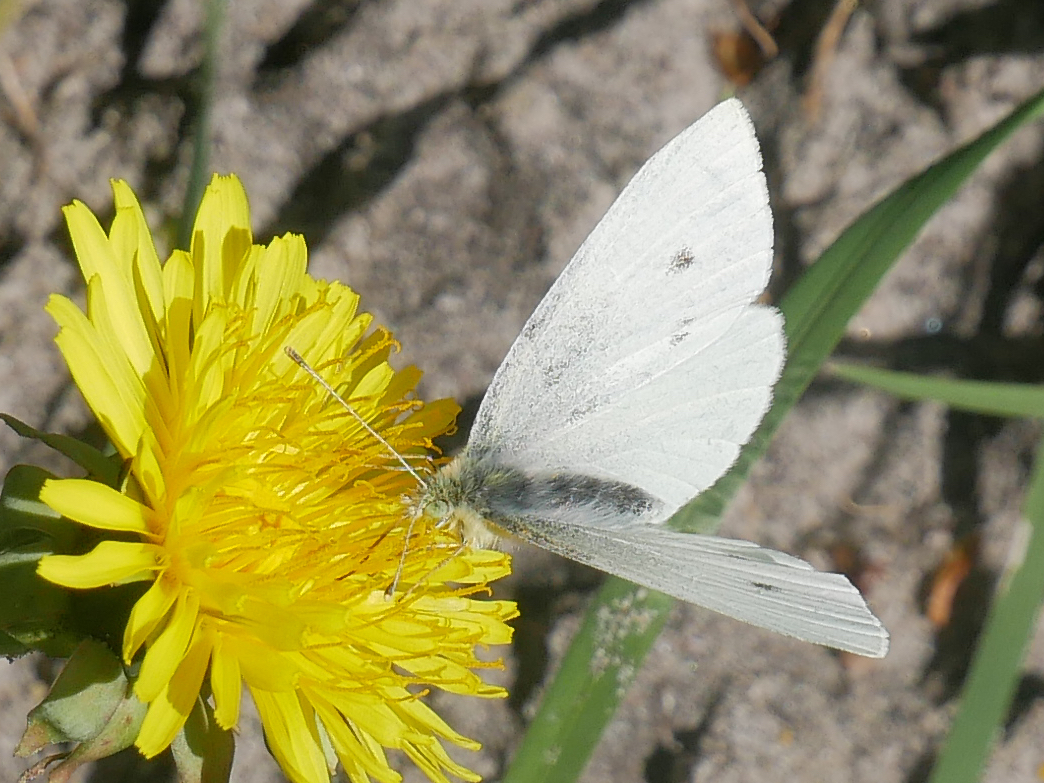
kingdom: Animalia
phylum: Arthropoda
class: Insecta
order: Lepidoptera
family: Pieridae
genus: Pieris
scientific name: Pieris rapae
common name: Small white
